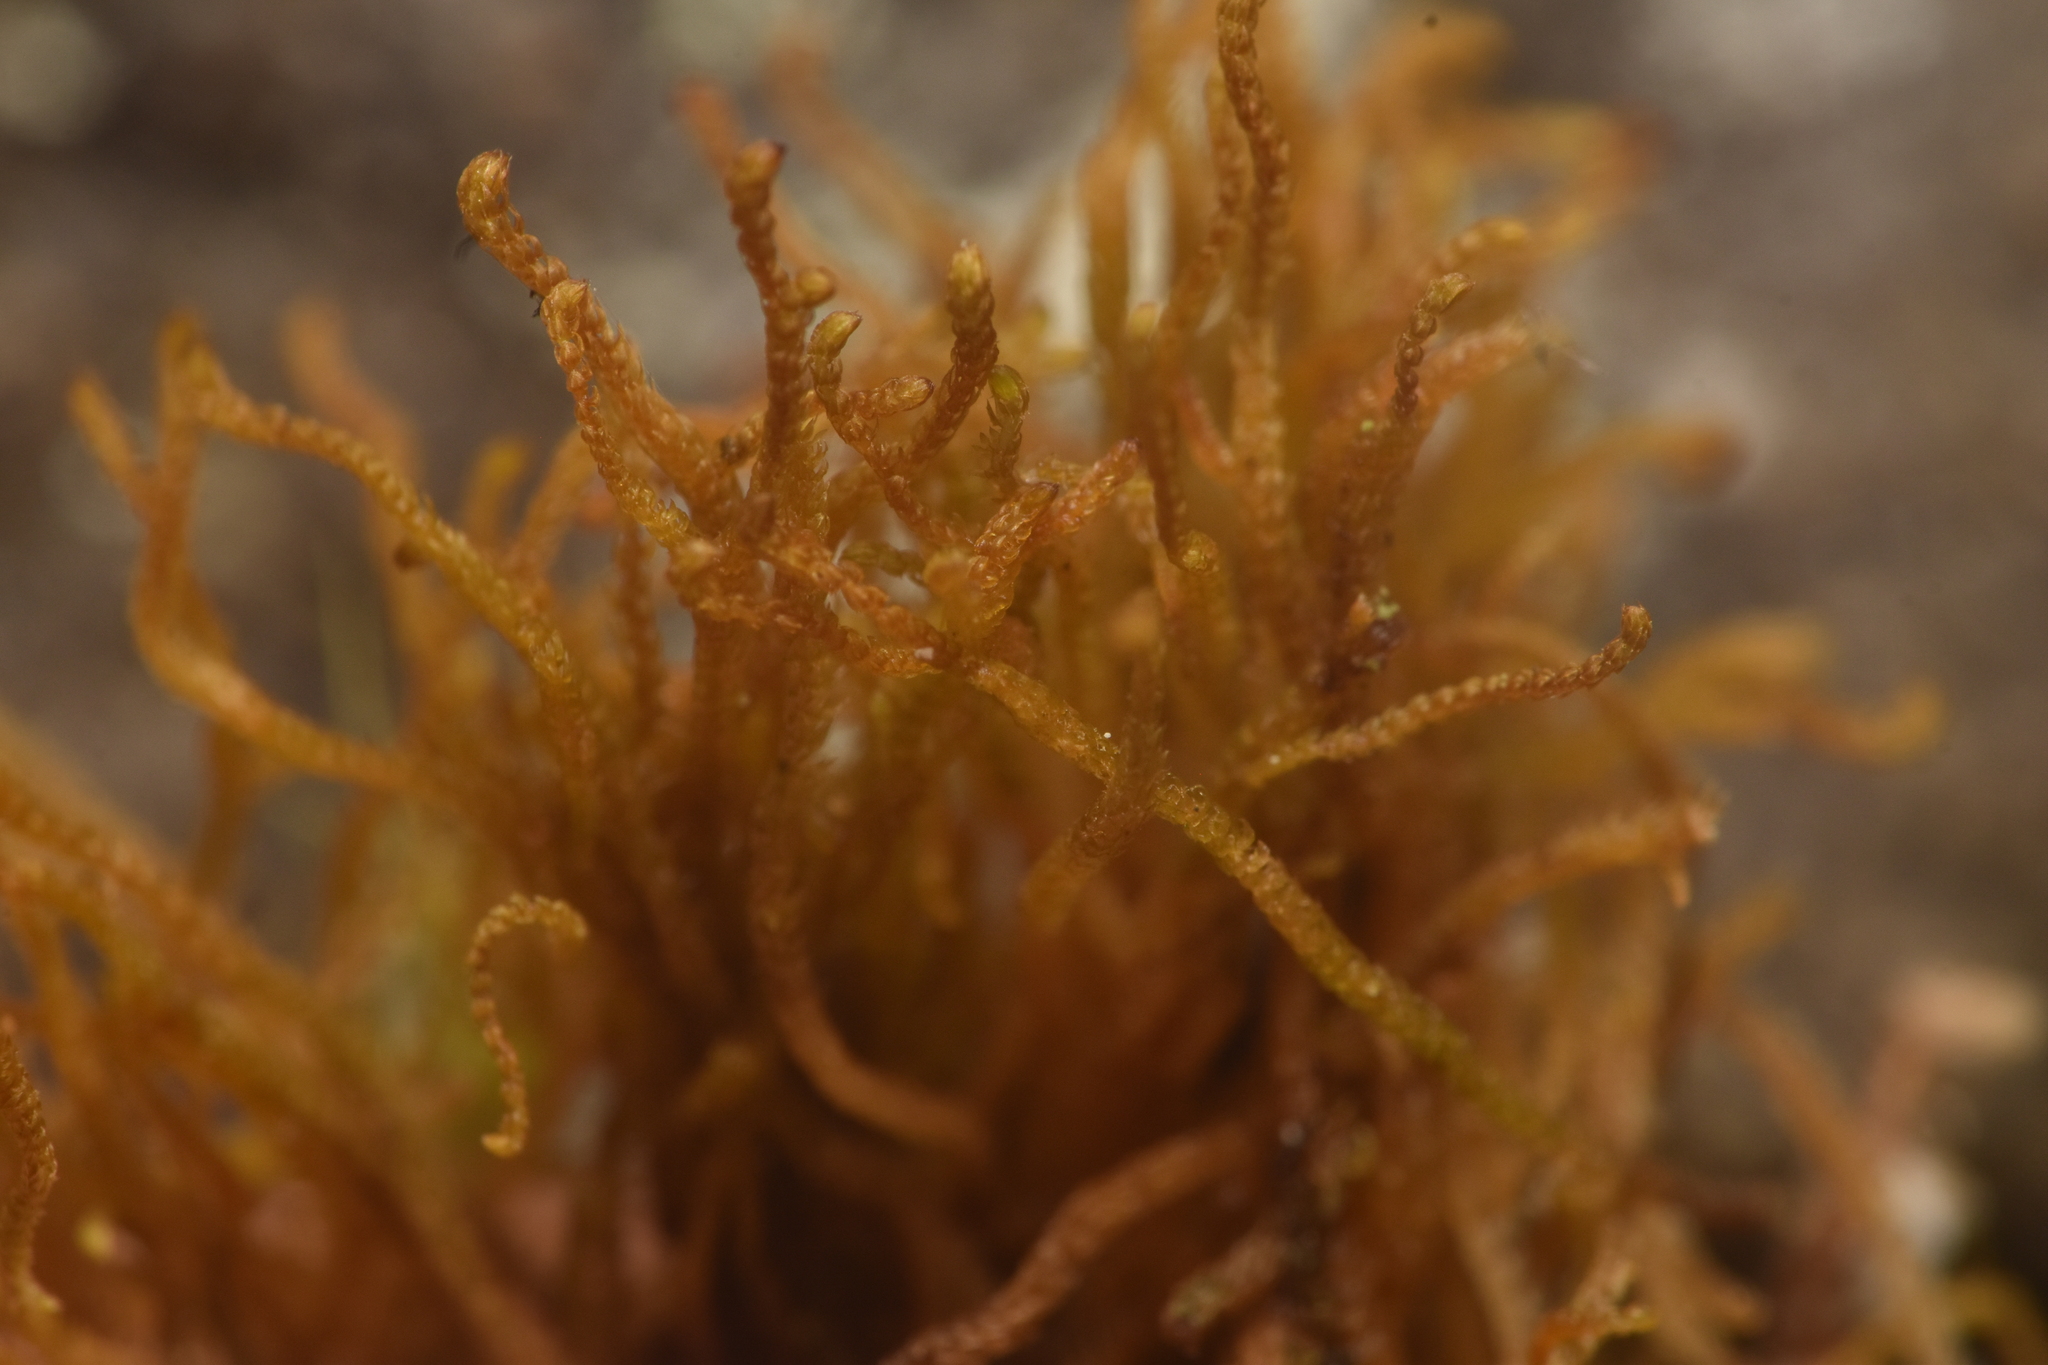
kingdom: Plantae
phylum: Marchantiophyta
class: Jungermanniopsida
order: Jungermanniales
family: Anastrophyllaceae
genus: Tetralophozia
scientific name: Tetralophozia setiformis
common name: Monster pawwort
